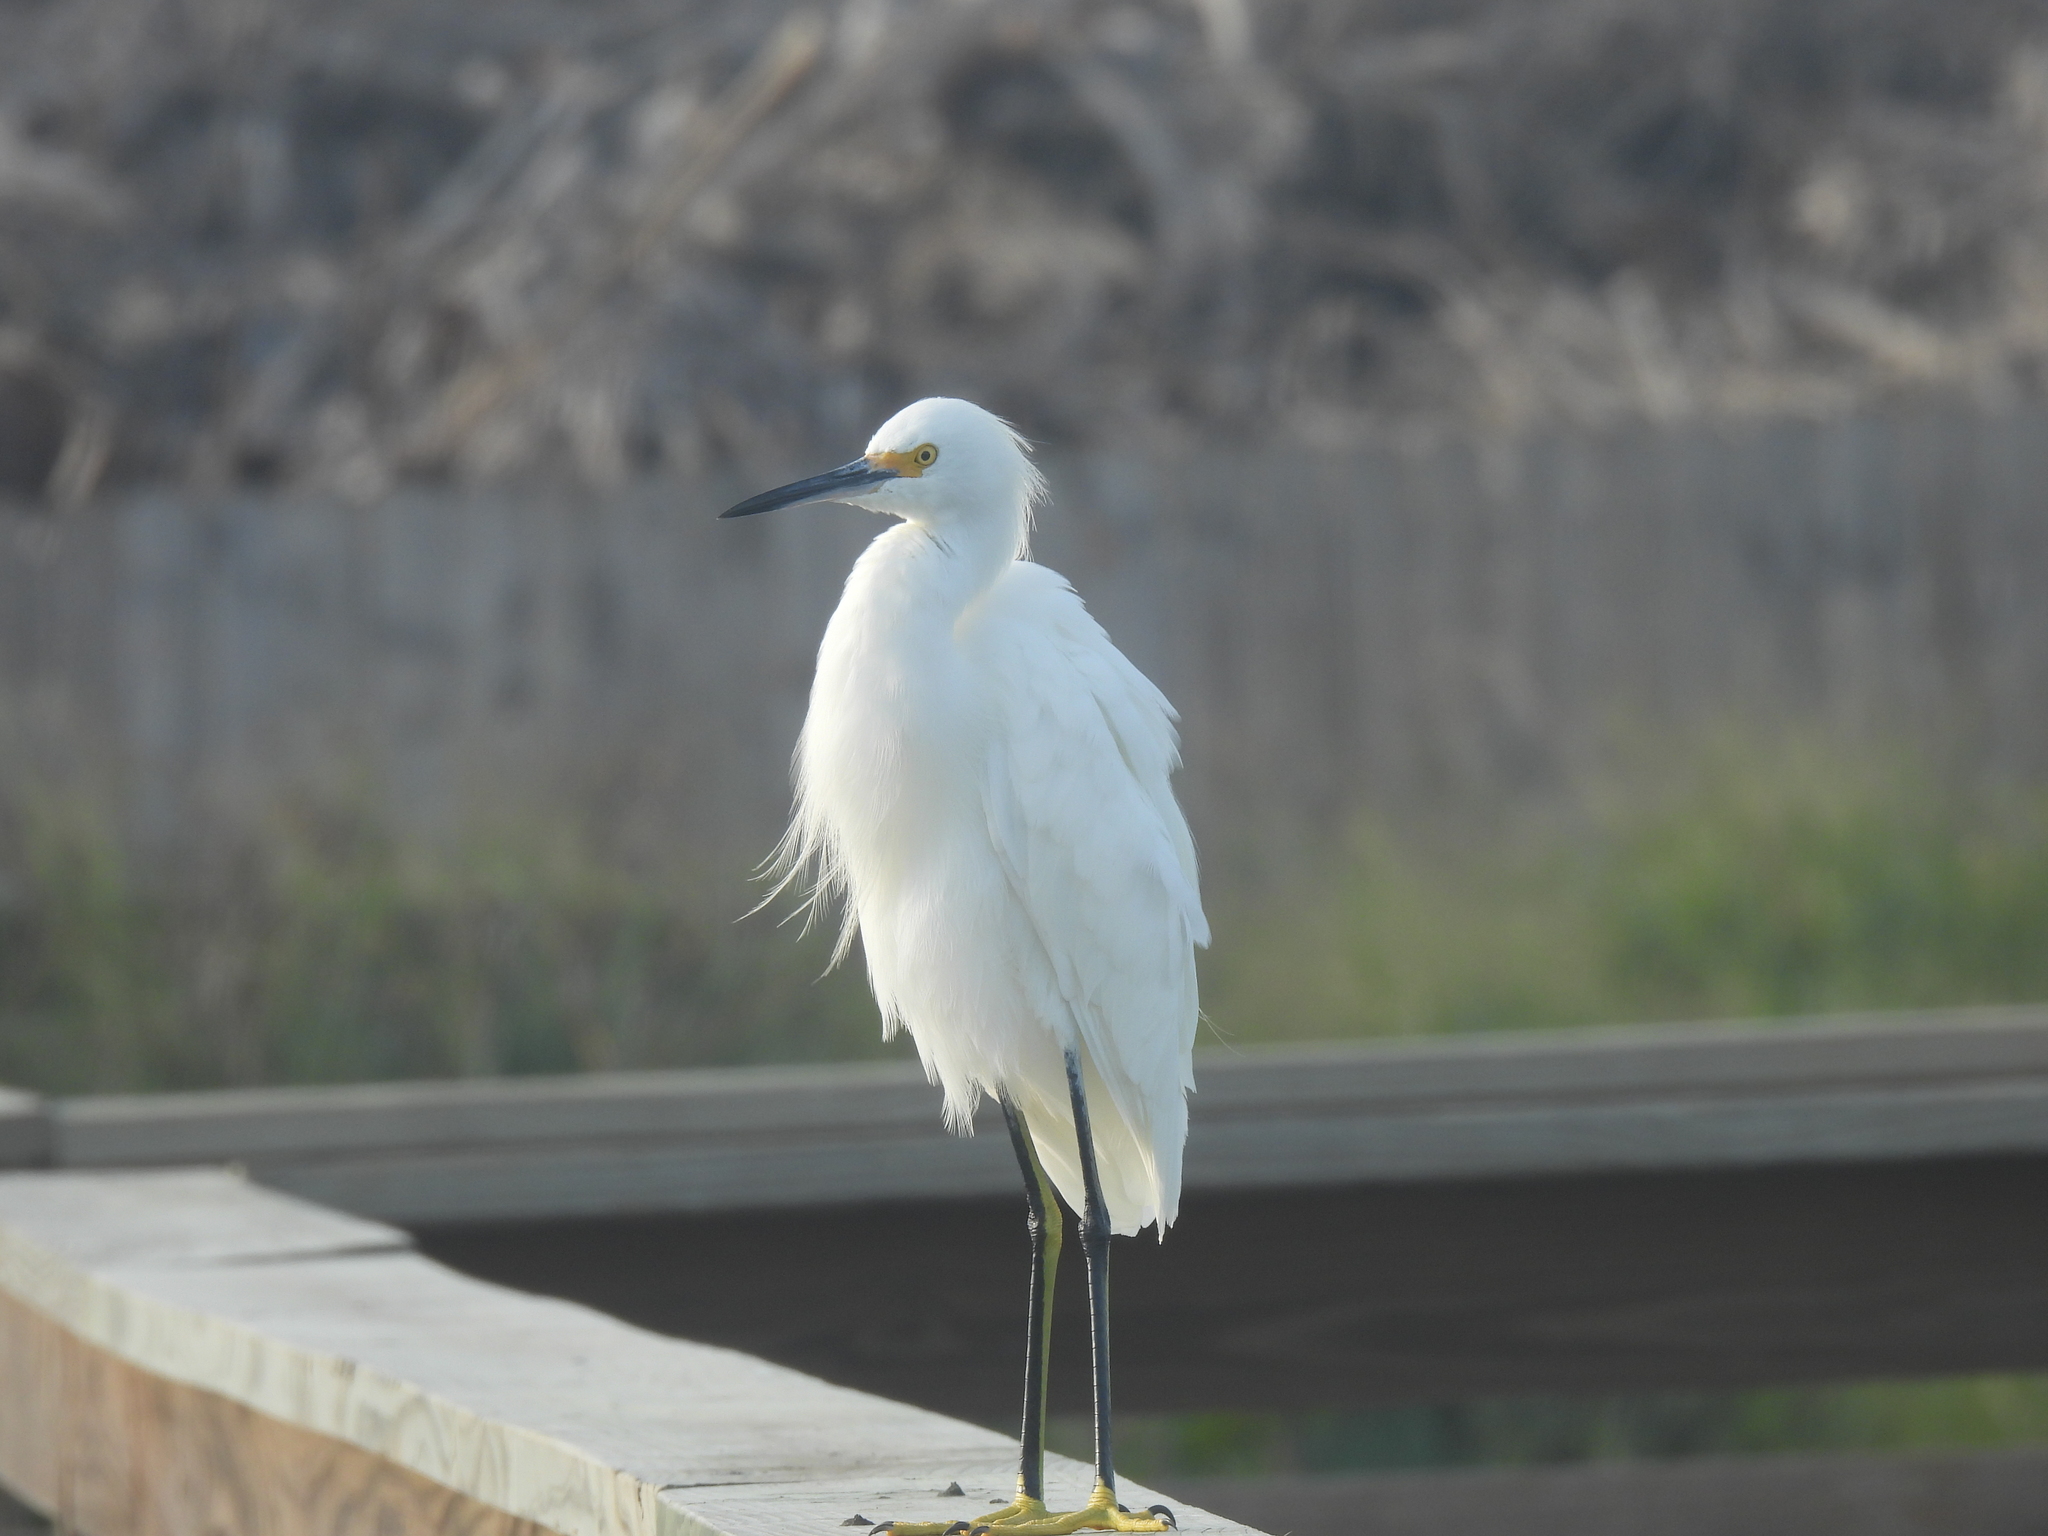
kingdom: Animalia
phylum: Chordata
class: Aves
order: Pelecaniformes
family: Ardeidae
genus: Egretta
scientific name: Egretta thula
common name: Snowy egret
